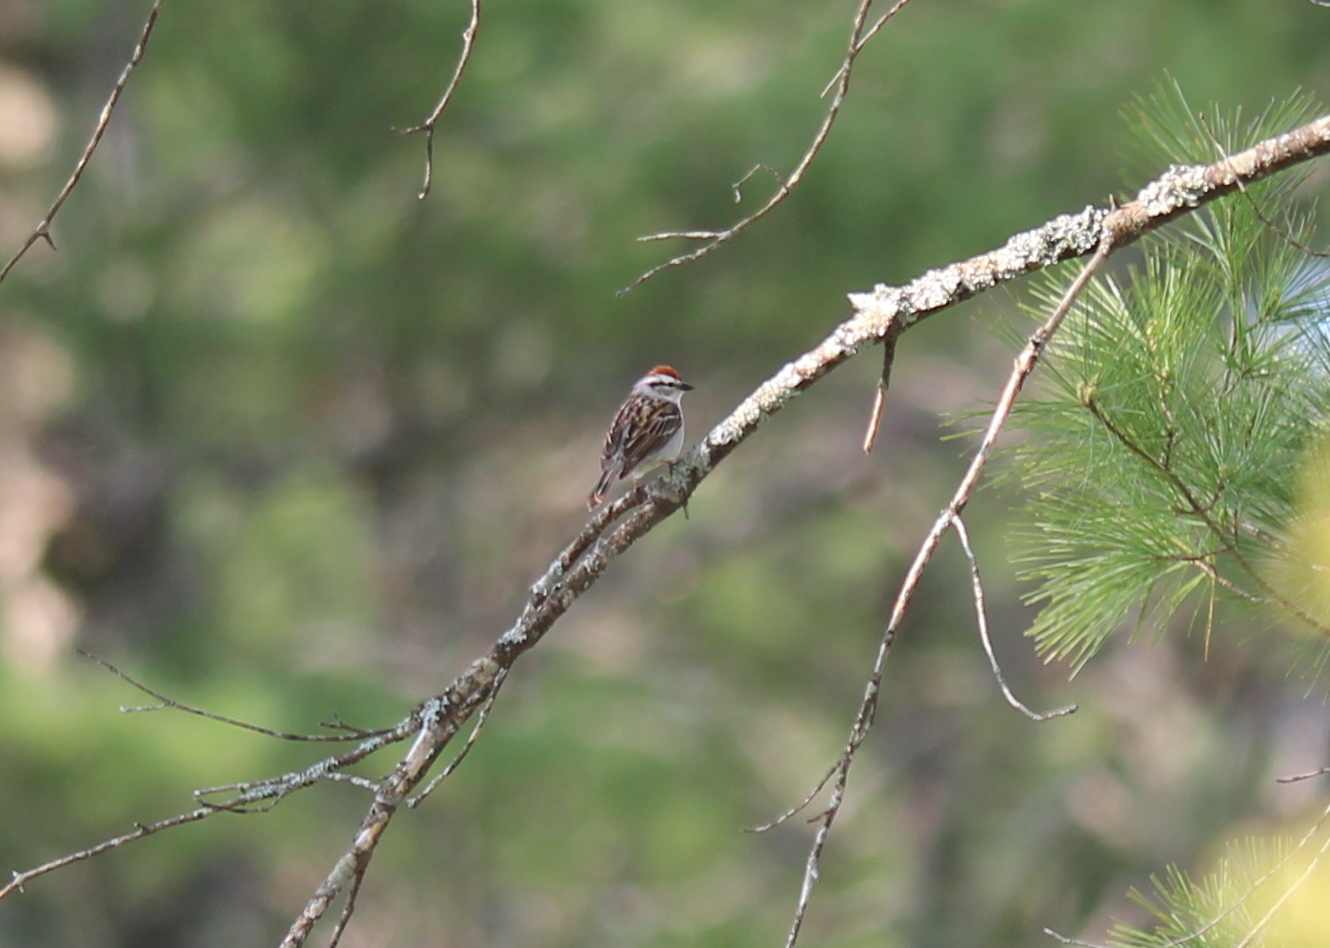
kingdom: Animalia
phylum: Chordata
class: Aves
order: Passeriformes
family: Passerellidae
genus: Spizella
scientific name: Spizella passerina
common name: Chipping sparrow
